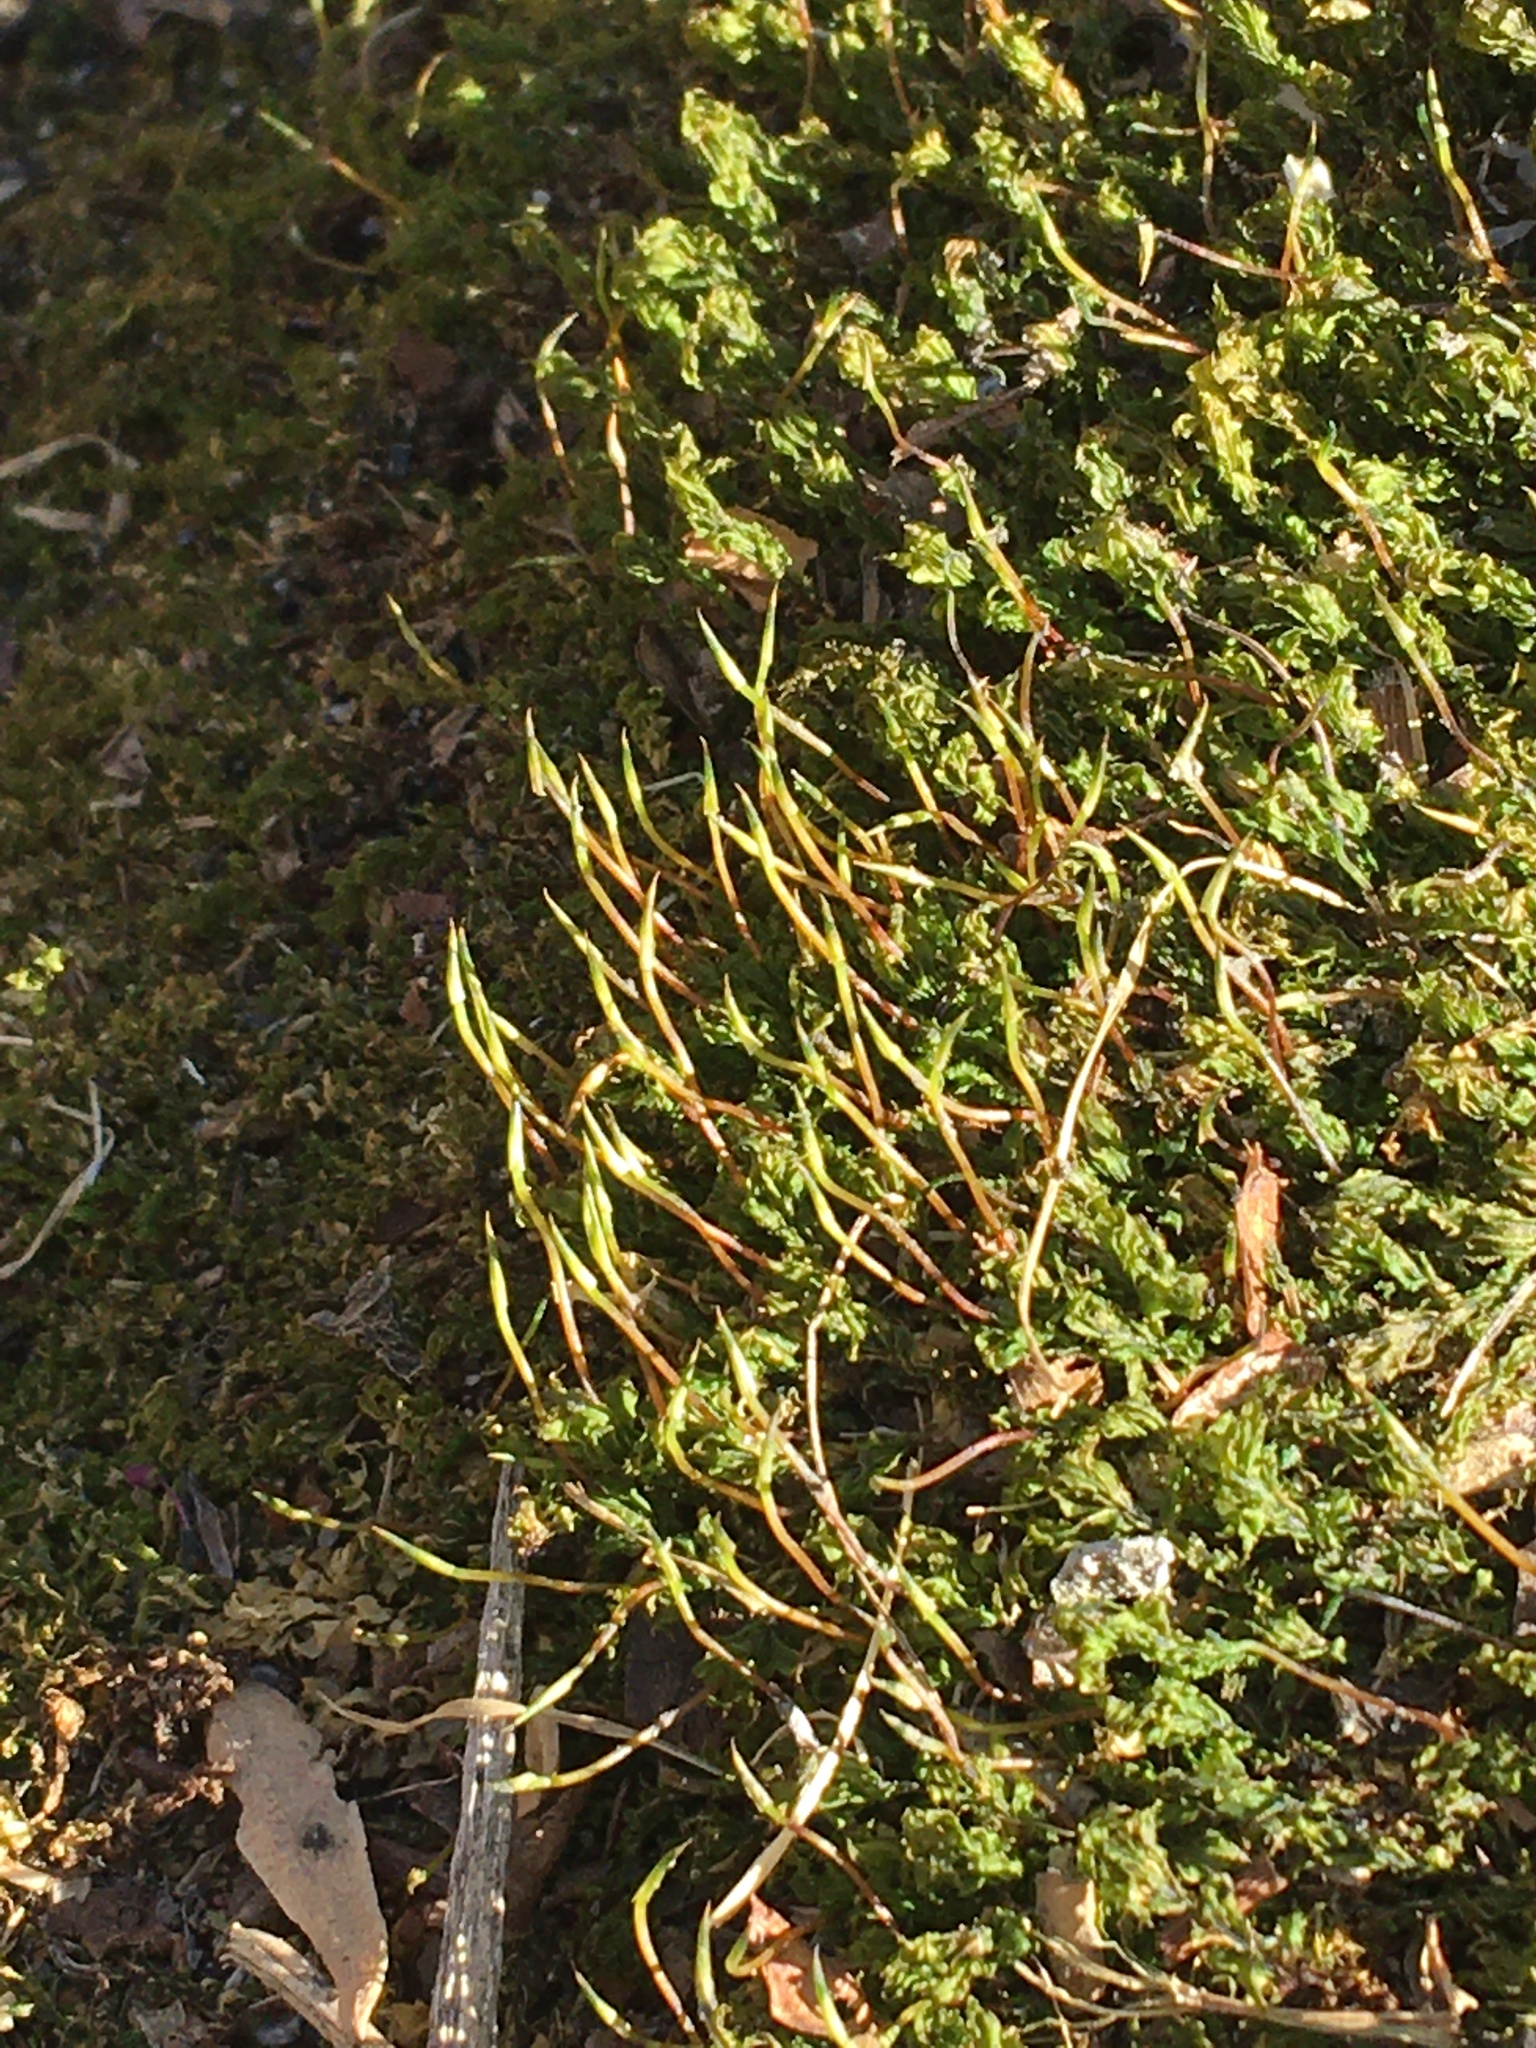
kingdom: Plantae
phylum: Bryophyta
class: Bryopsida
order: Bryales
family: Mniaceae
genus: Plagiomnium
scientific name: Plagiomnium cuspidatum
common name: Woodsy leafy moss
